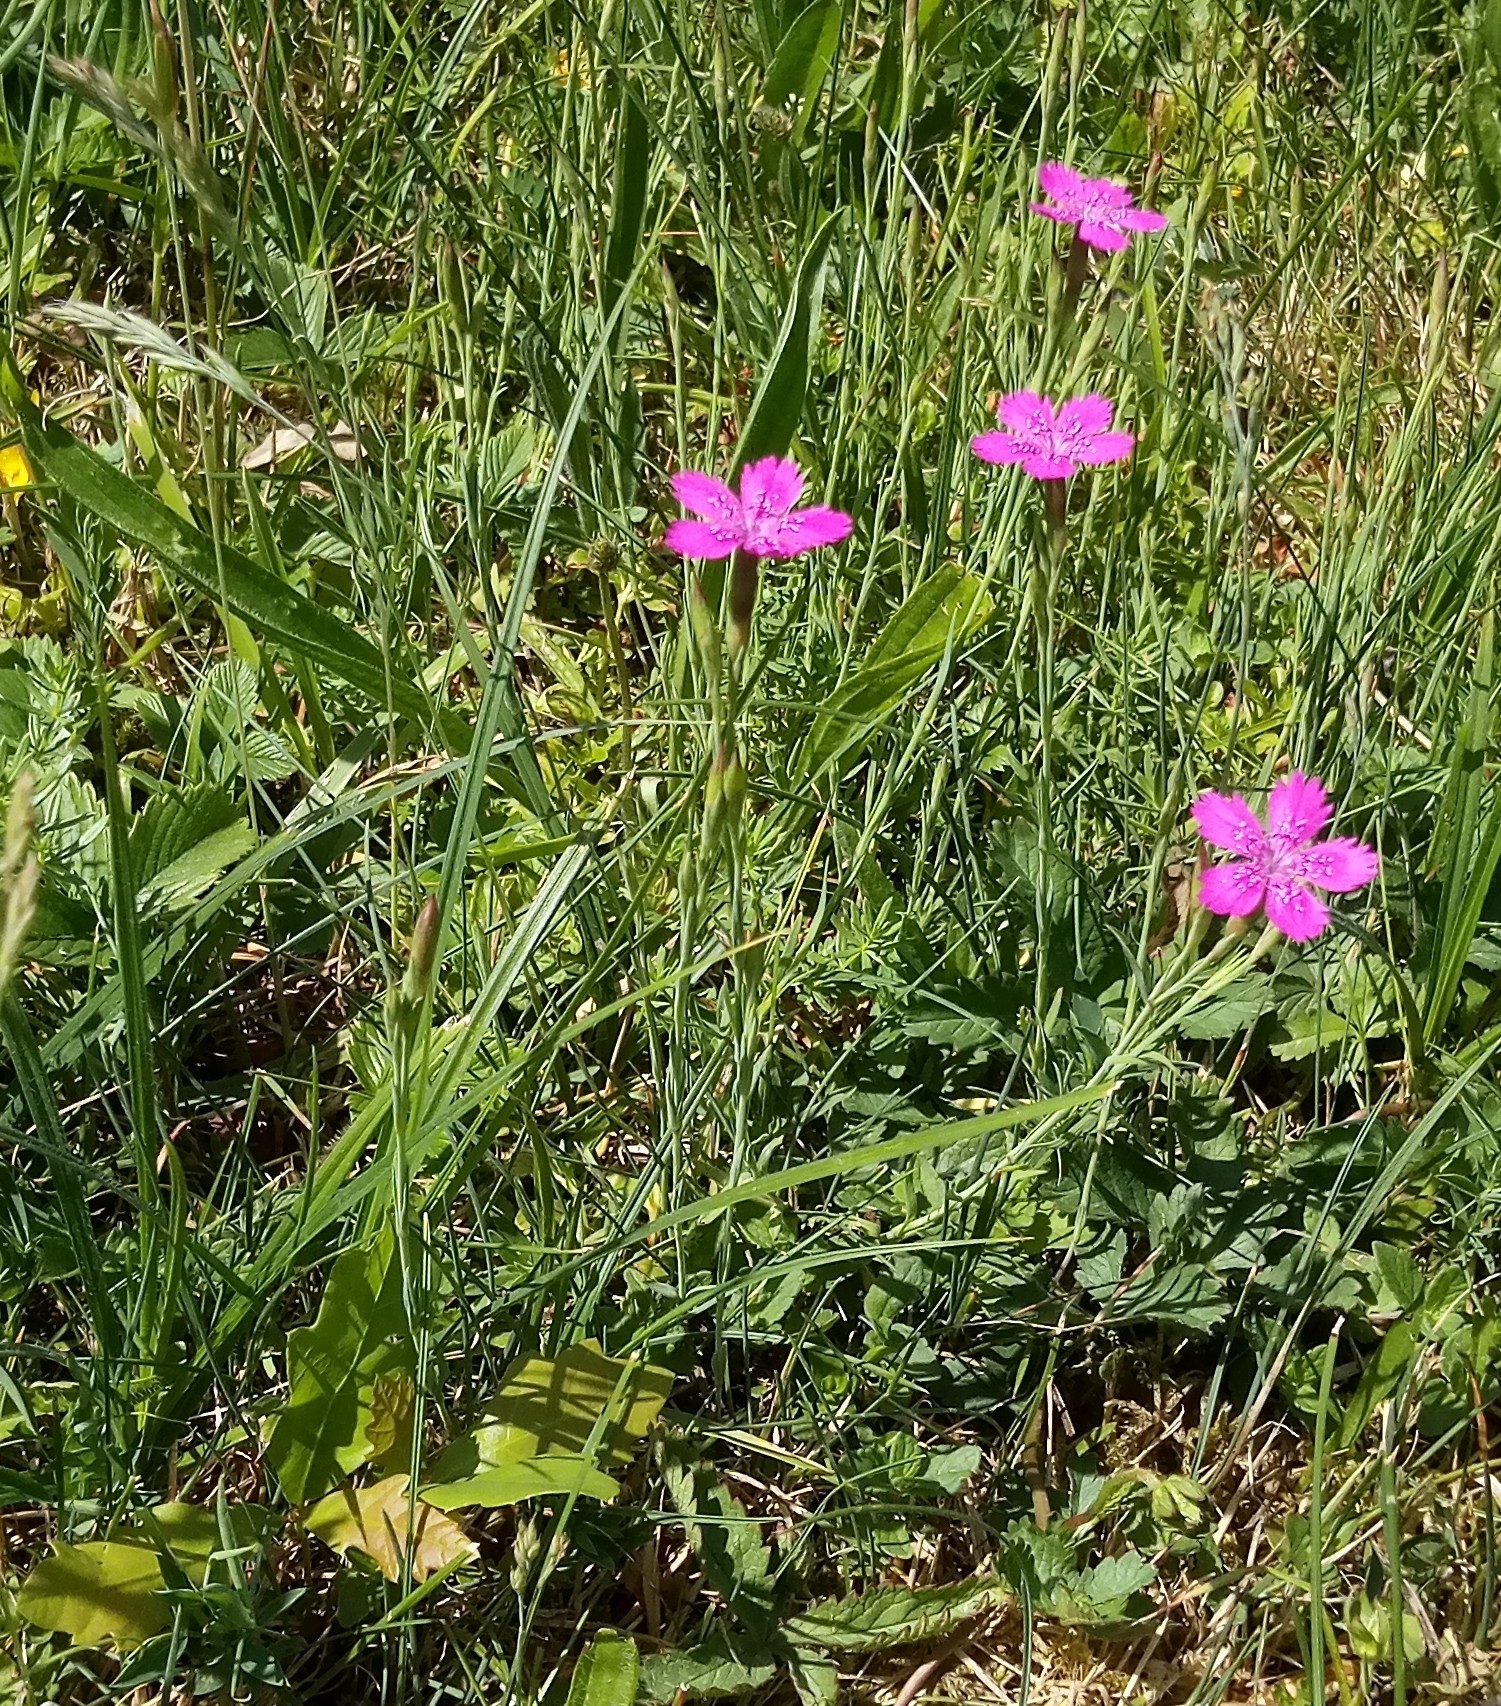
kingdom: Plantae
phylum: Tracheophyta
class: Magnoliopsida
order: Caryophyllales
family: Caryophyllaceae
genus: Dianthus
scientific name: Dianthus deltoides
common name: Maiden pink
